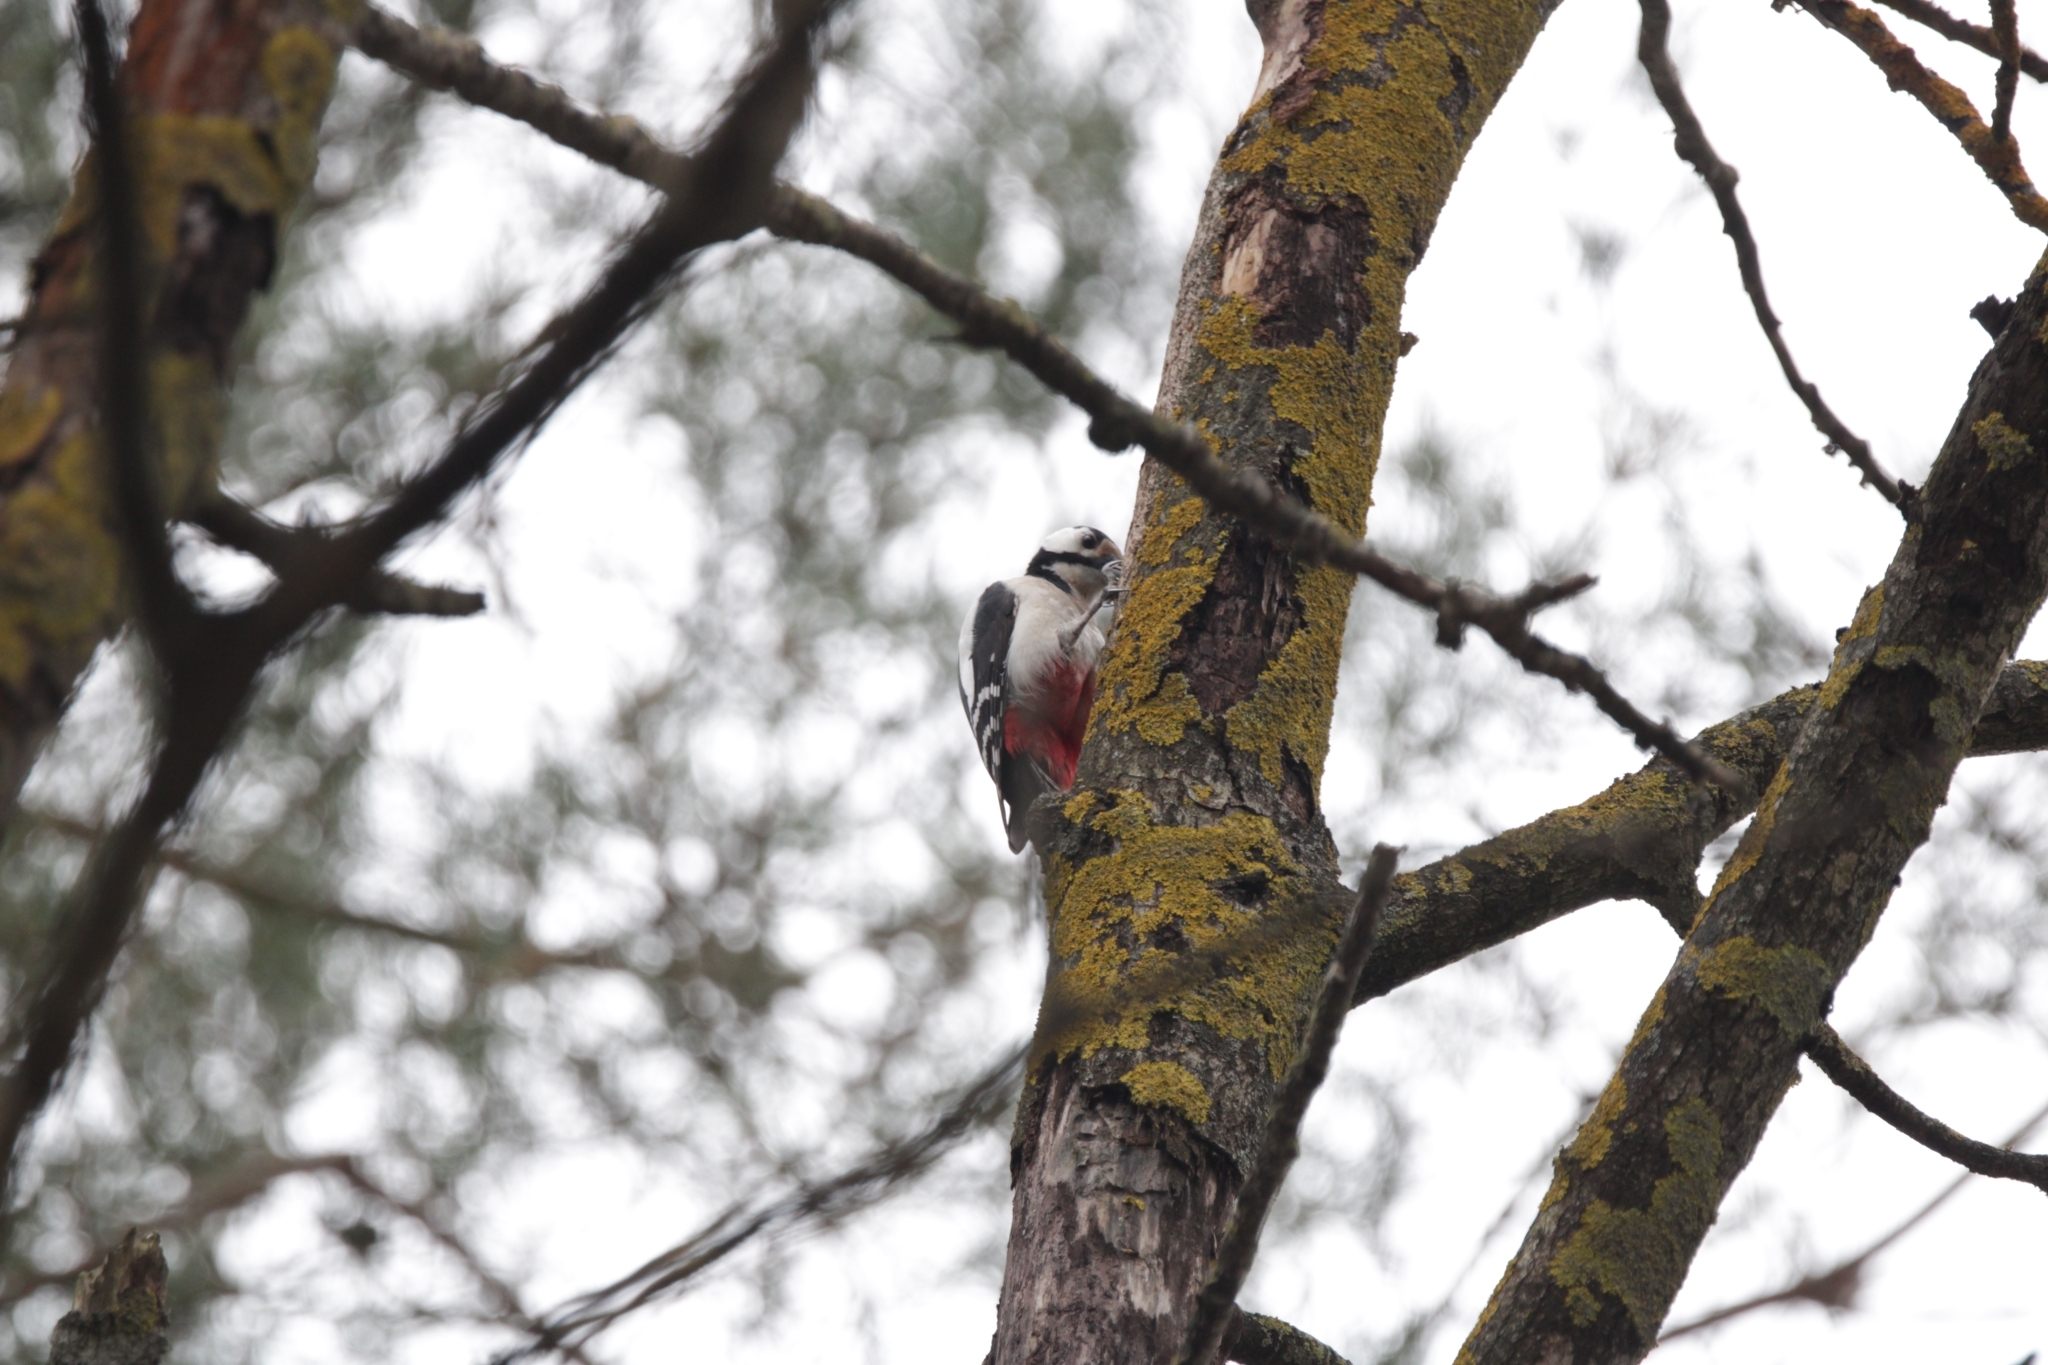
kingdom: Animalia
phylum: Chordata
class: Aves
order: Piciformes
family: Picidae
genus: Dendrocopos
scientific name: Dendrocopos major
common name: Great spotted woodpecker
